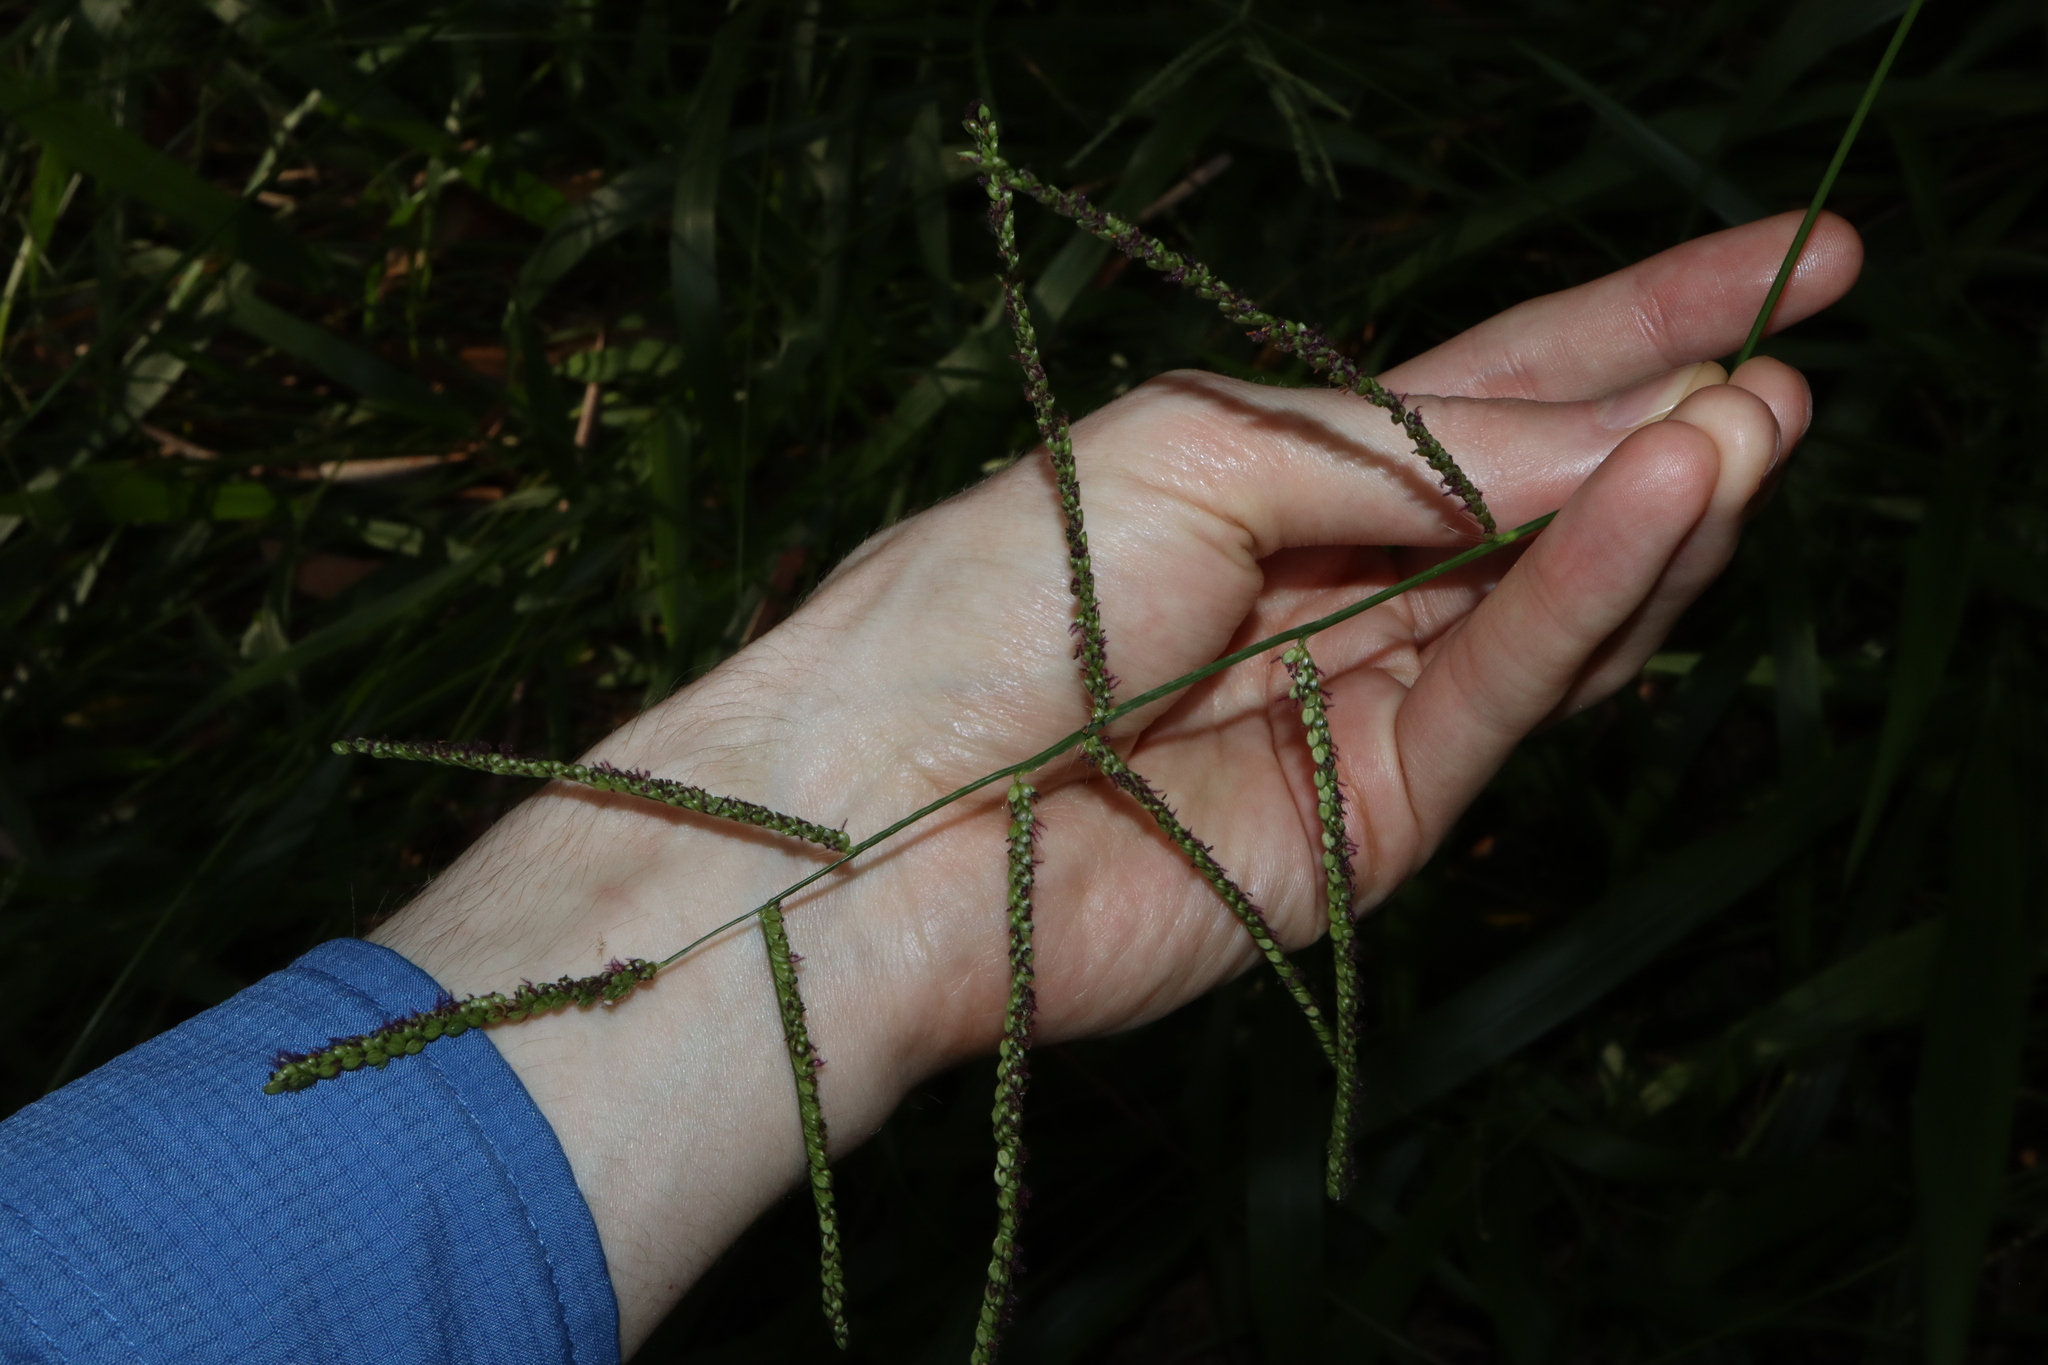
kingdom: Plantae
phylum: Tracheophyta
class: Liliopsida
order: Poales
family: Poaceae
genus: Paspalum
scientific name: Paspalum mandiocanum
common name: Paspalum
